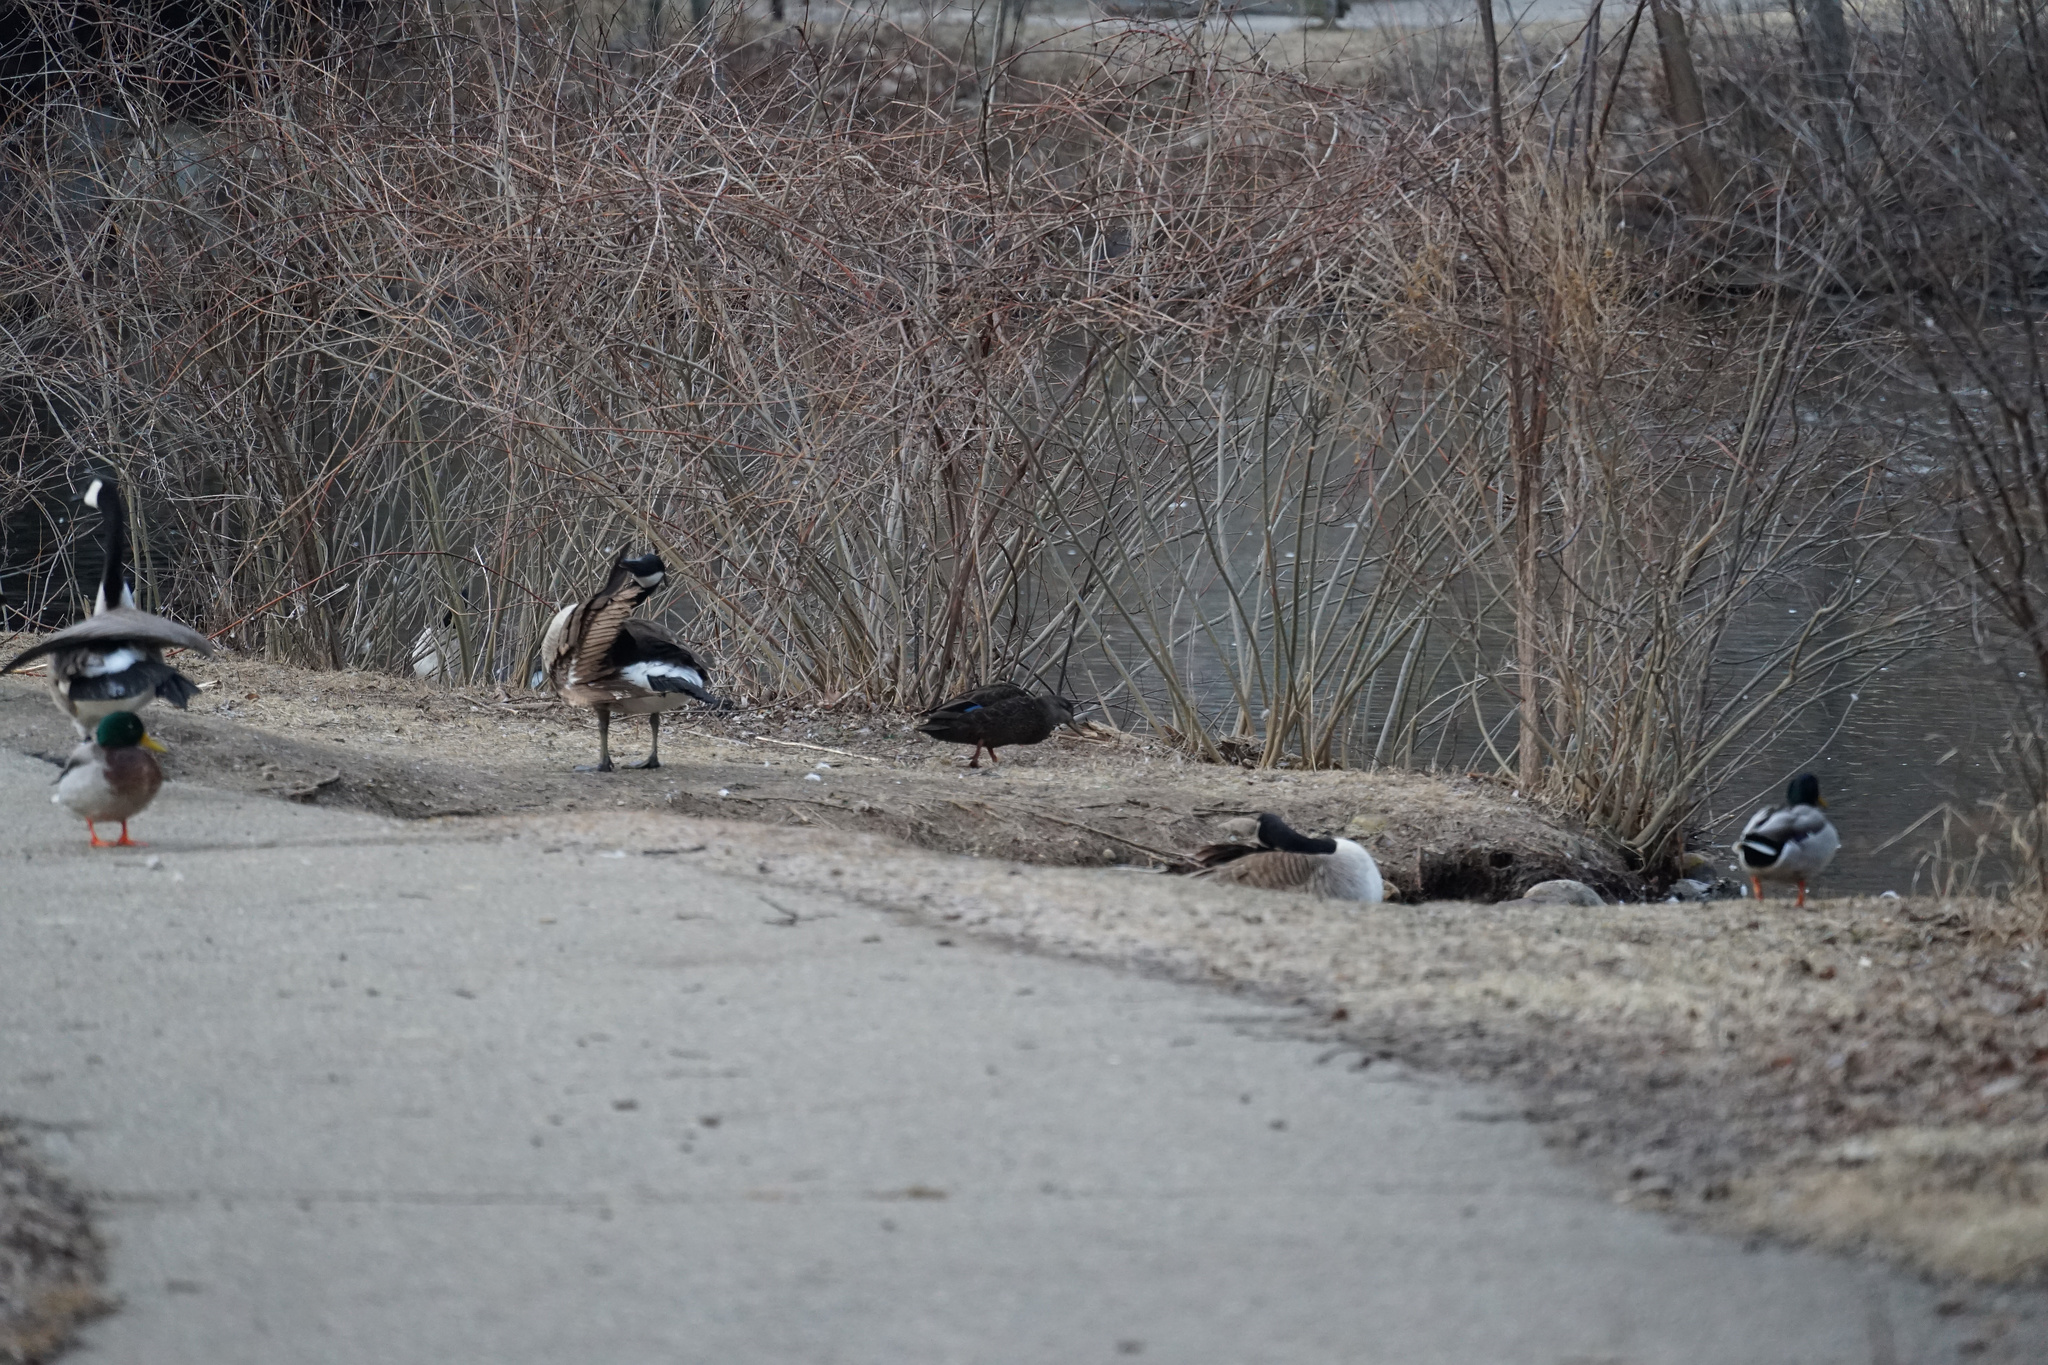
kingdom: Animalia
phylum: Chordata
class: Aves
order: Anseriformes
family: Anatidae
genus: Anas
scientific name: Anas rubripes
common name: American black duck
